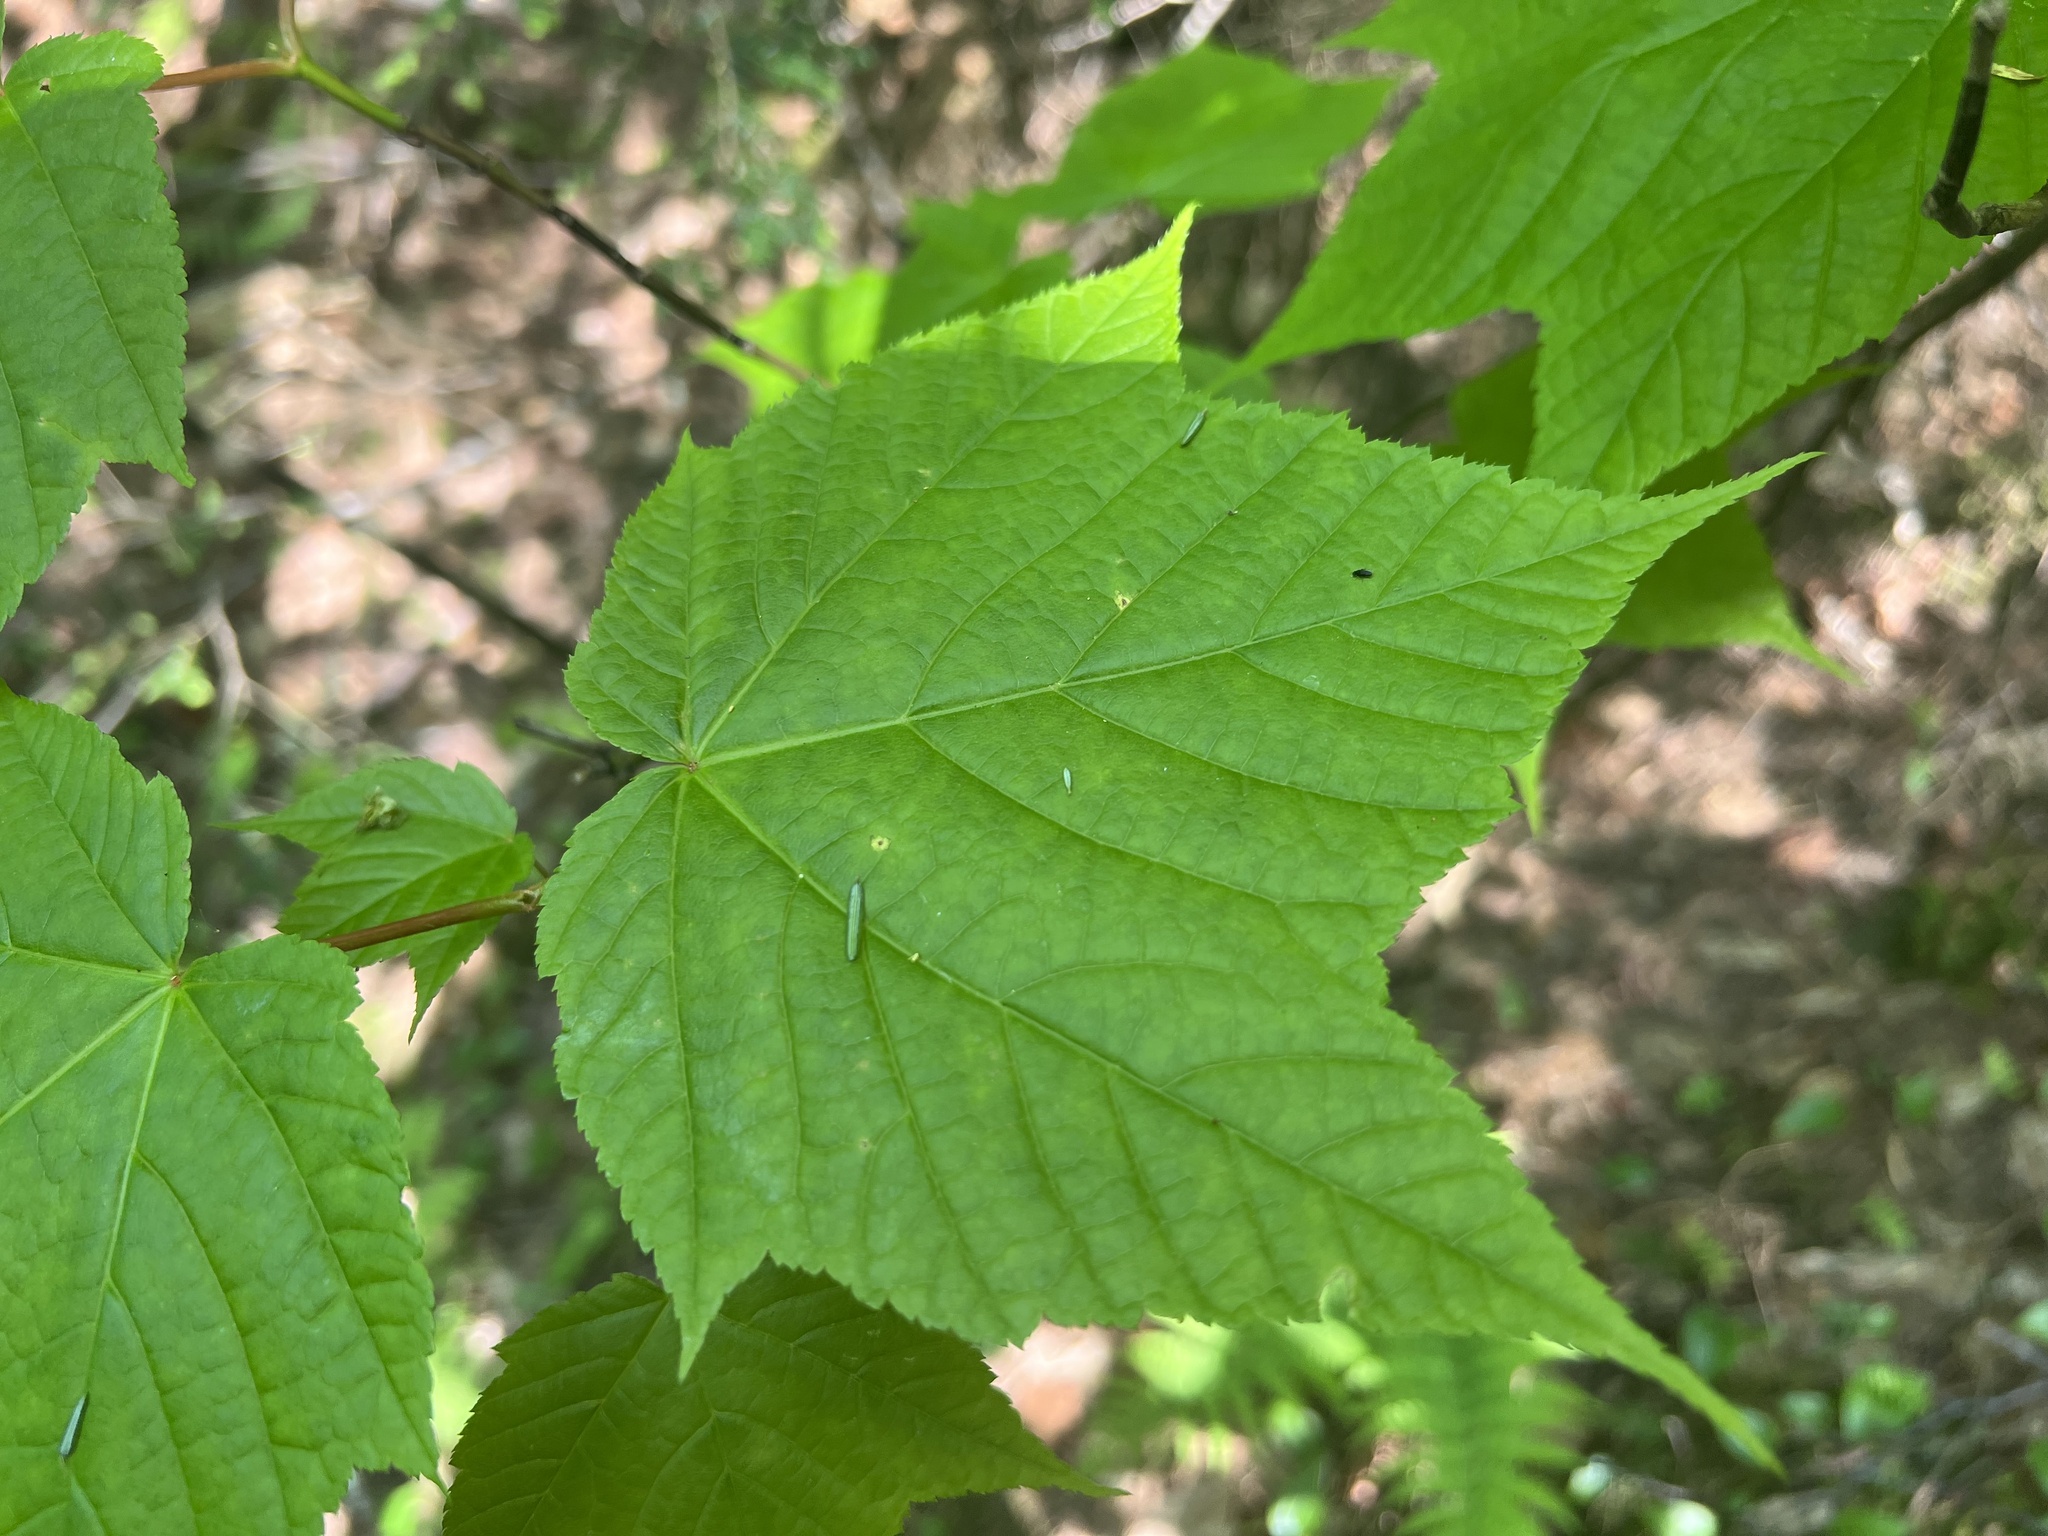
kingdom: Plantae
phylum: Tracheophyta
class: Magnoliopsida
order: Sapindales
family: Sapindaceae
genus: Acer
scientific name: Acer pensylvanicum
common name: Moosewood
